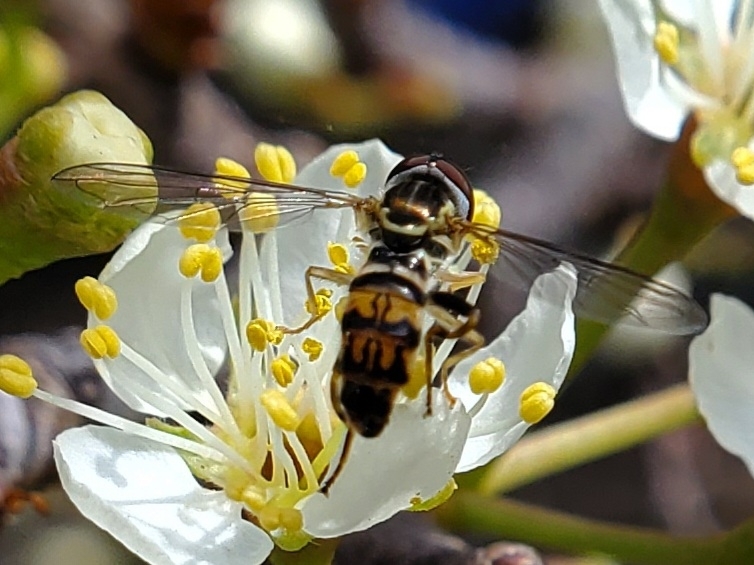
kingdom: Animalia
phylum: Arthropoda
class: Insecta
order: Diptera
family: Syrphidae
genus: Toxomerus
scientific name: Toxomerus geminatus
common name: Eastern calligrapher
